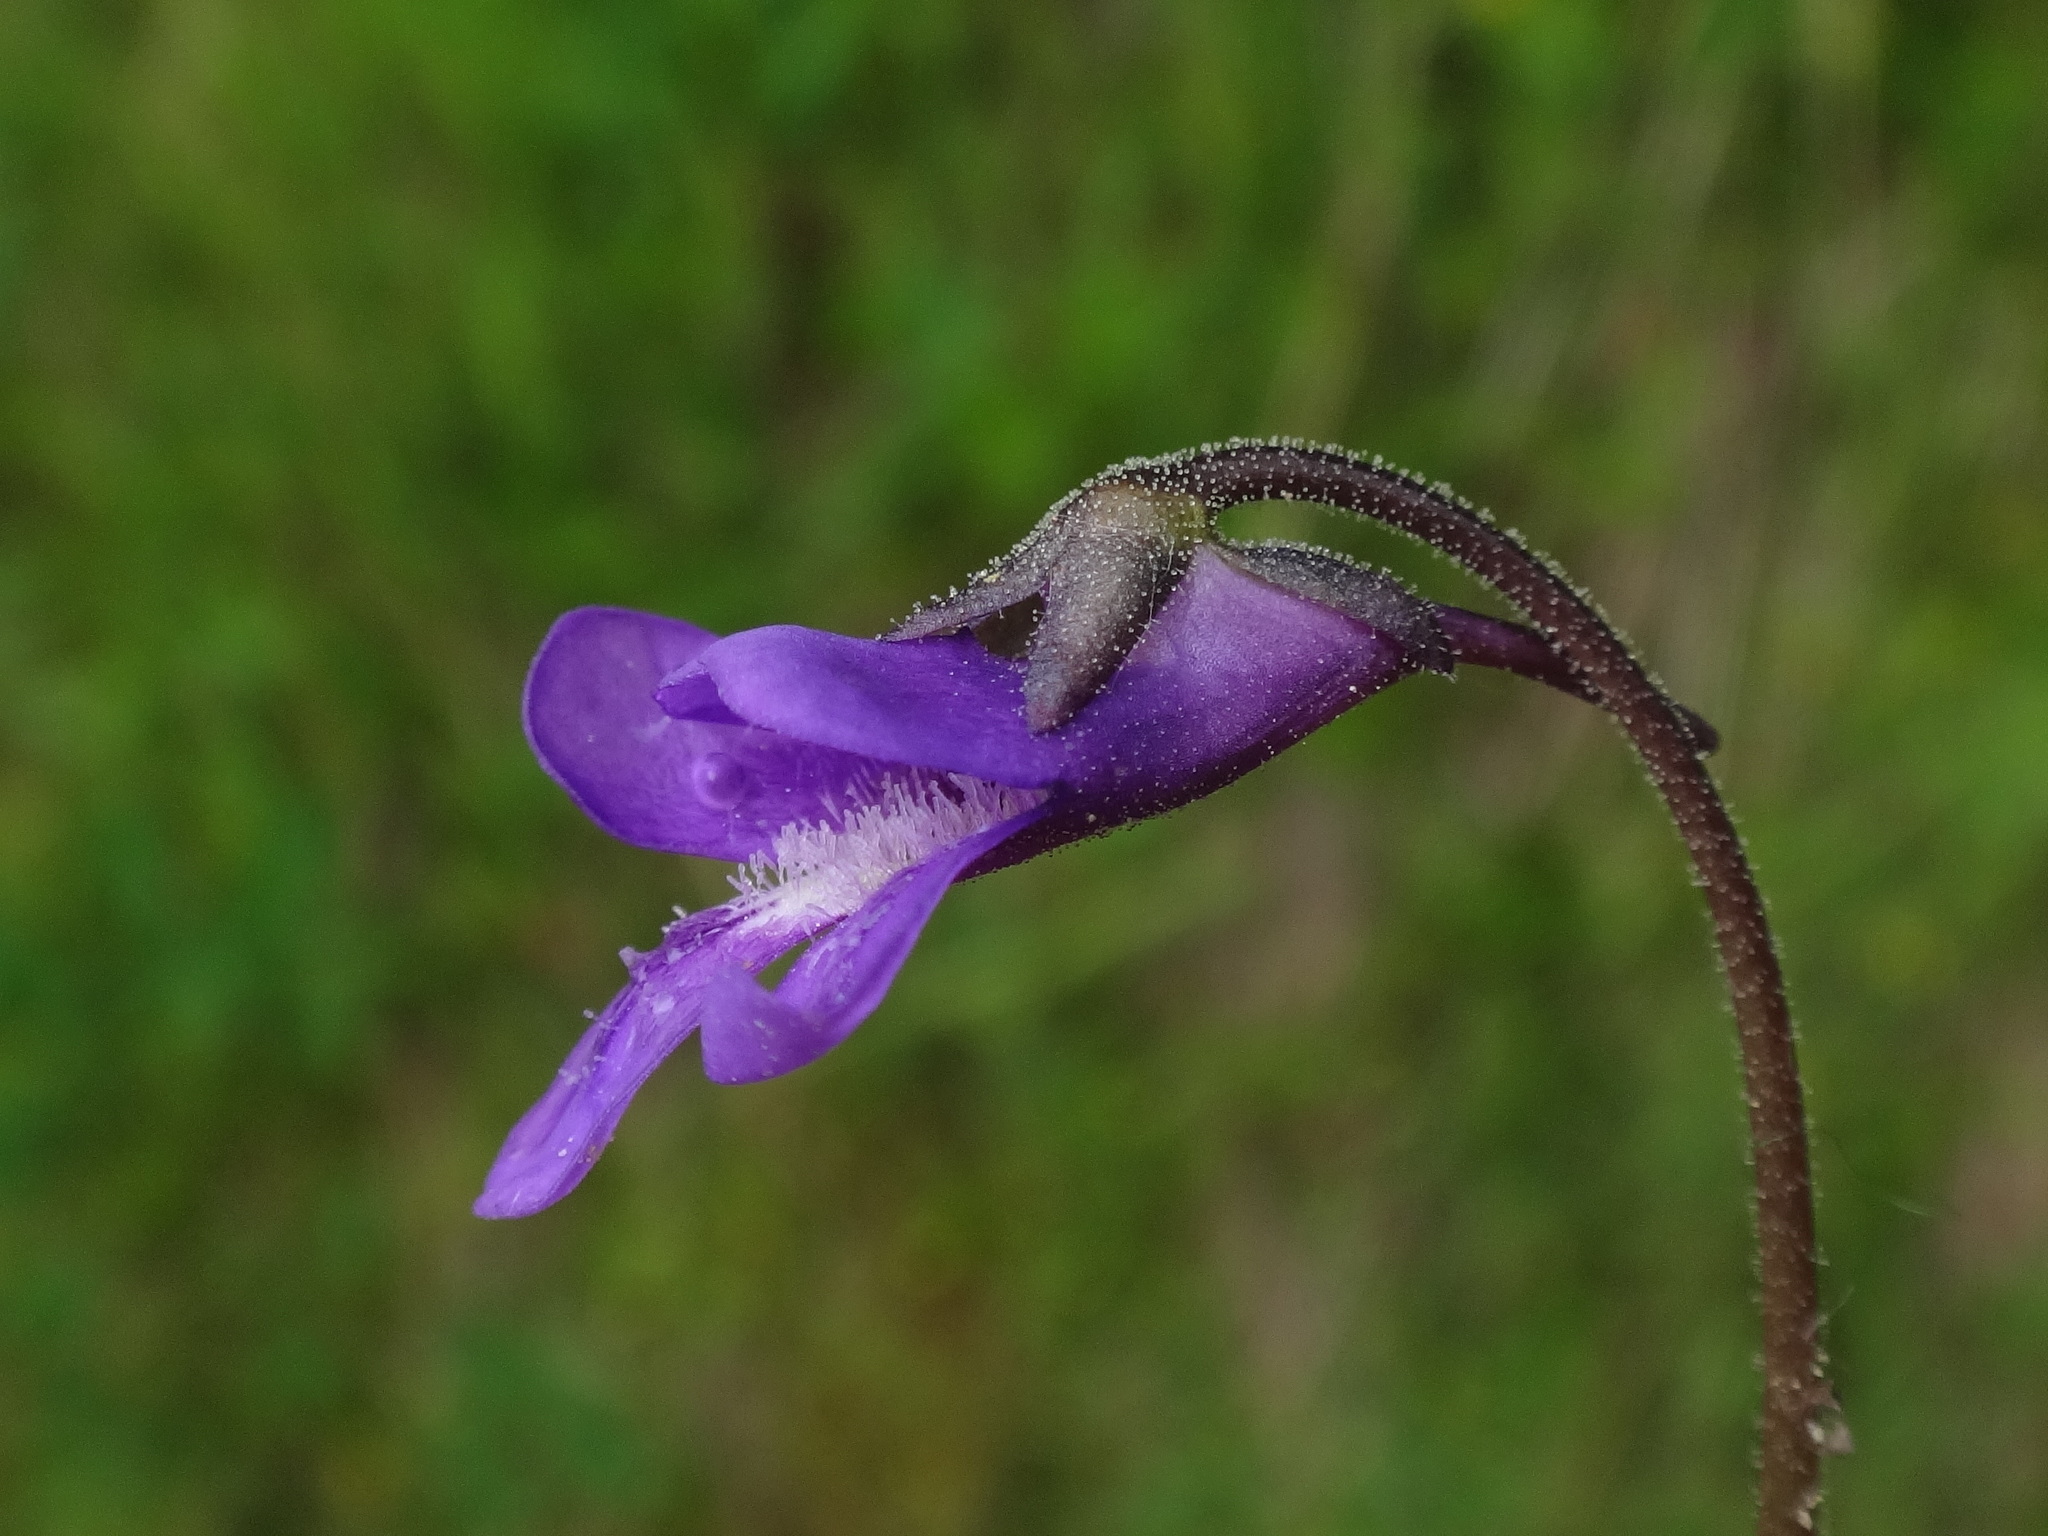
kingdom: Plantae
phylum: Tracheophyta
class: Magnoliopsida
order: Lamiales
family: Lentibulariaceae
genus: Pinguicula
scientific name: Pinguicula vulgaris
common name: Common butterwort
